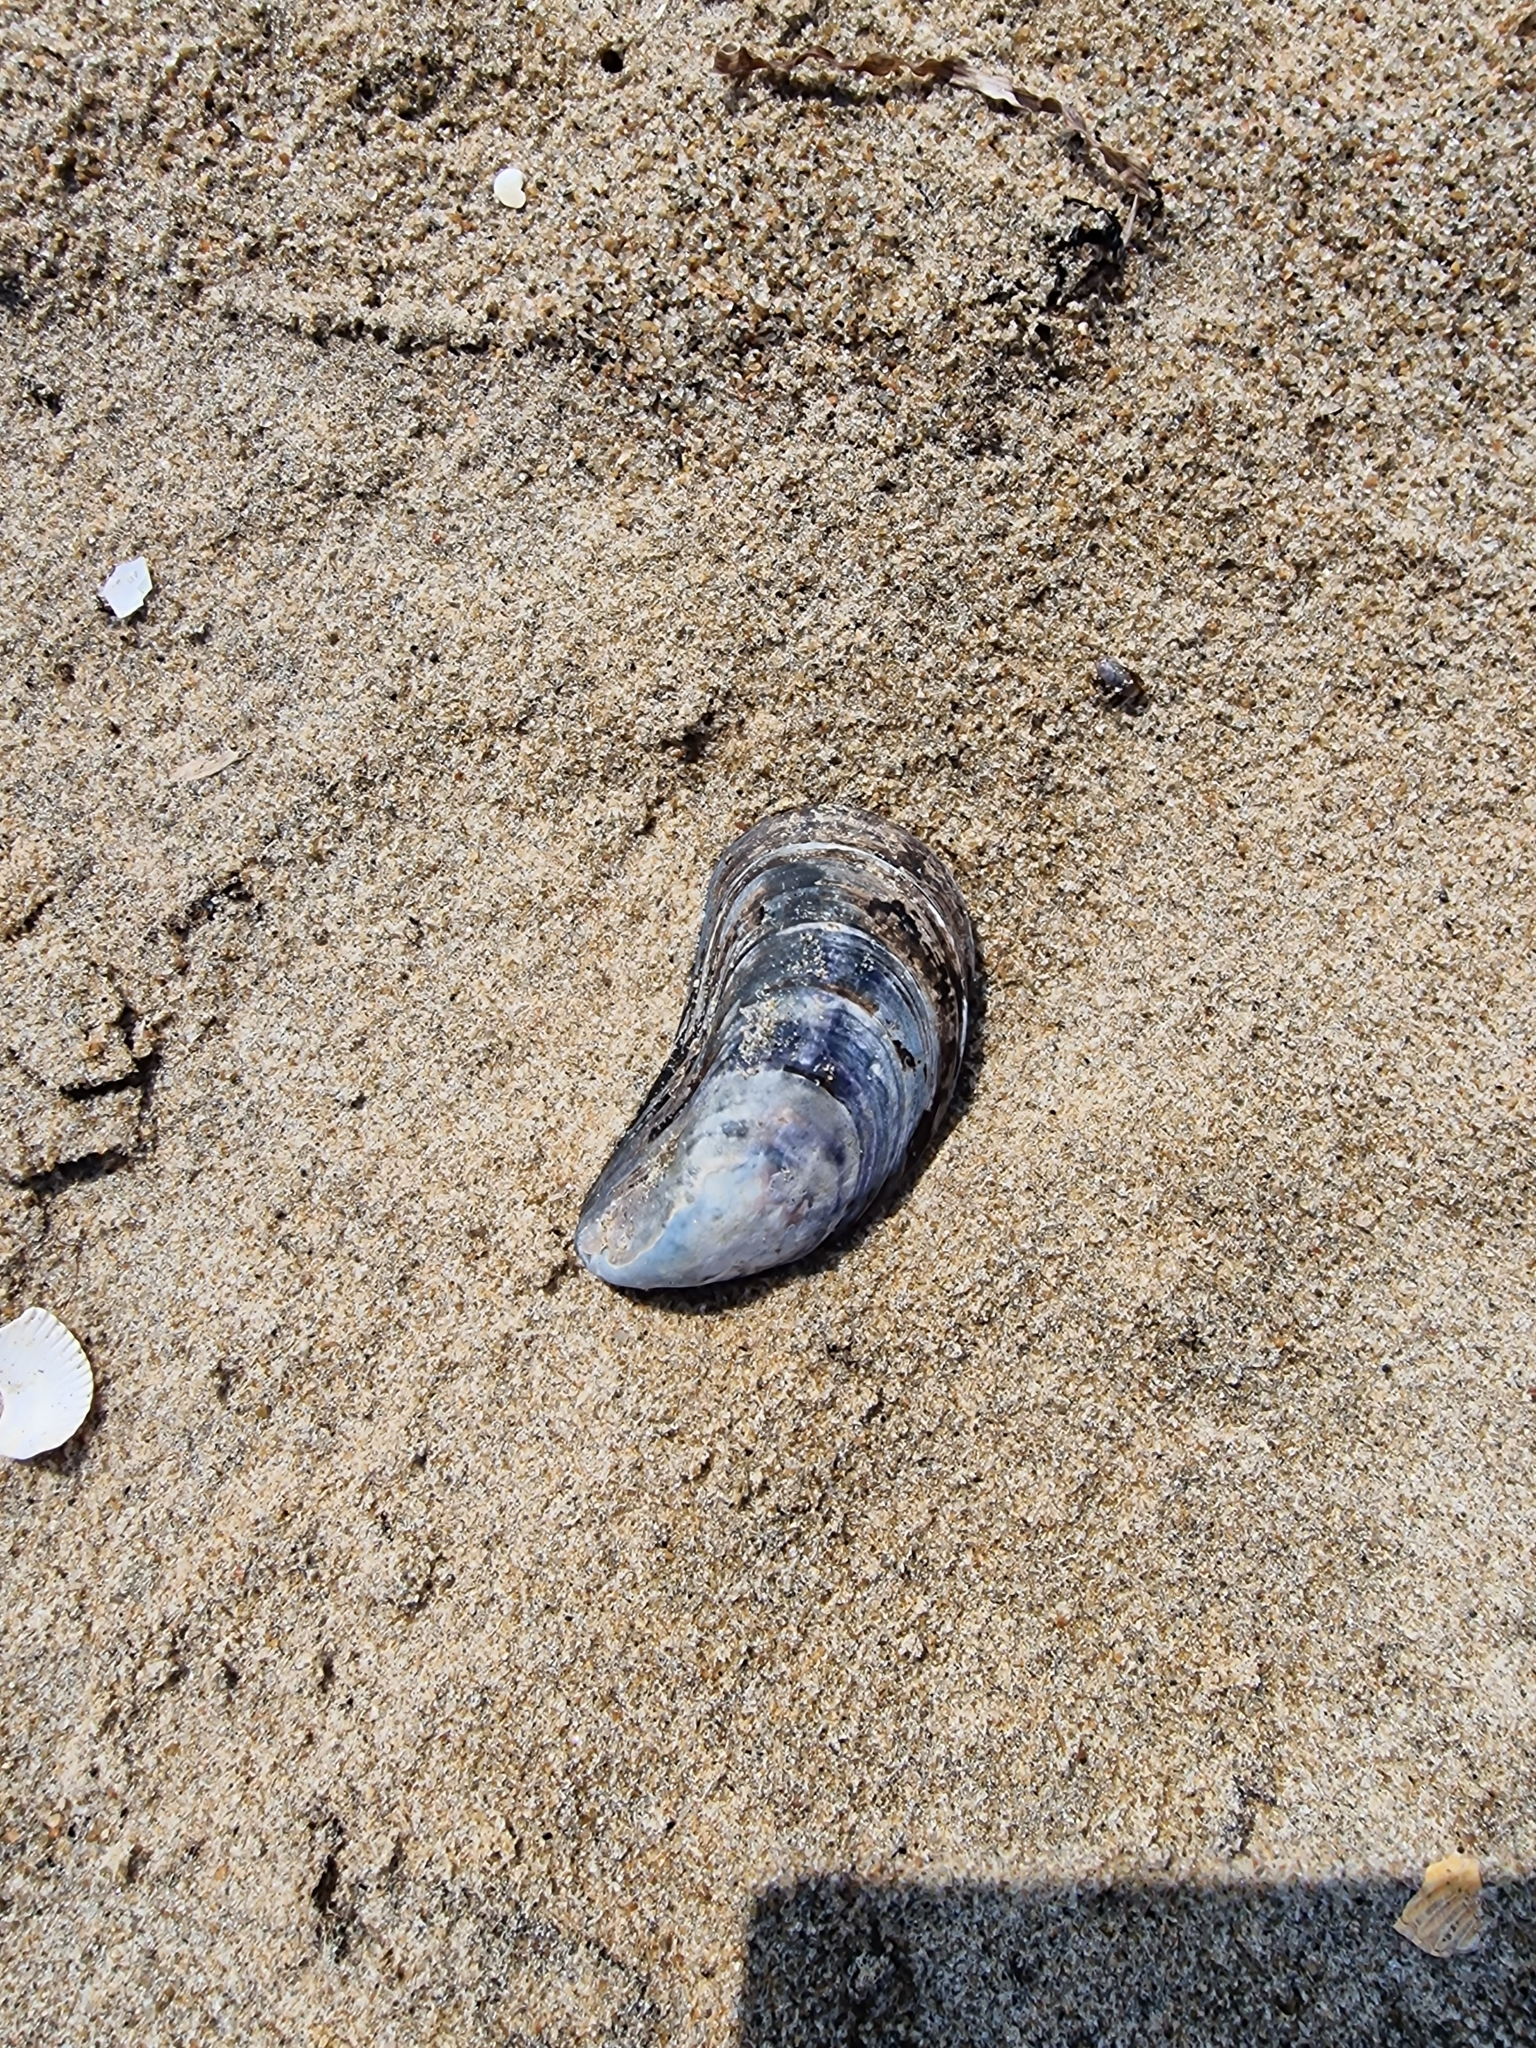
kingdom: Animalia
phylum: Mollusca
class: Bivalvia
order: Mytilida
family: Mytilidae
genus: Mytilus
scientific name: Mytilus edulis
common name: Blue mussel
